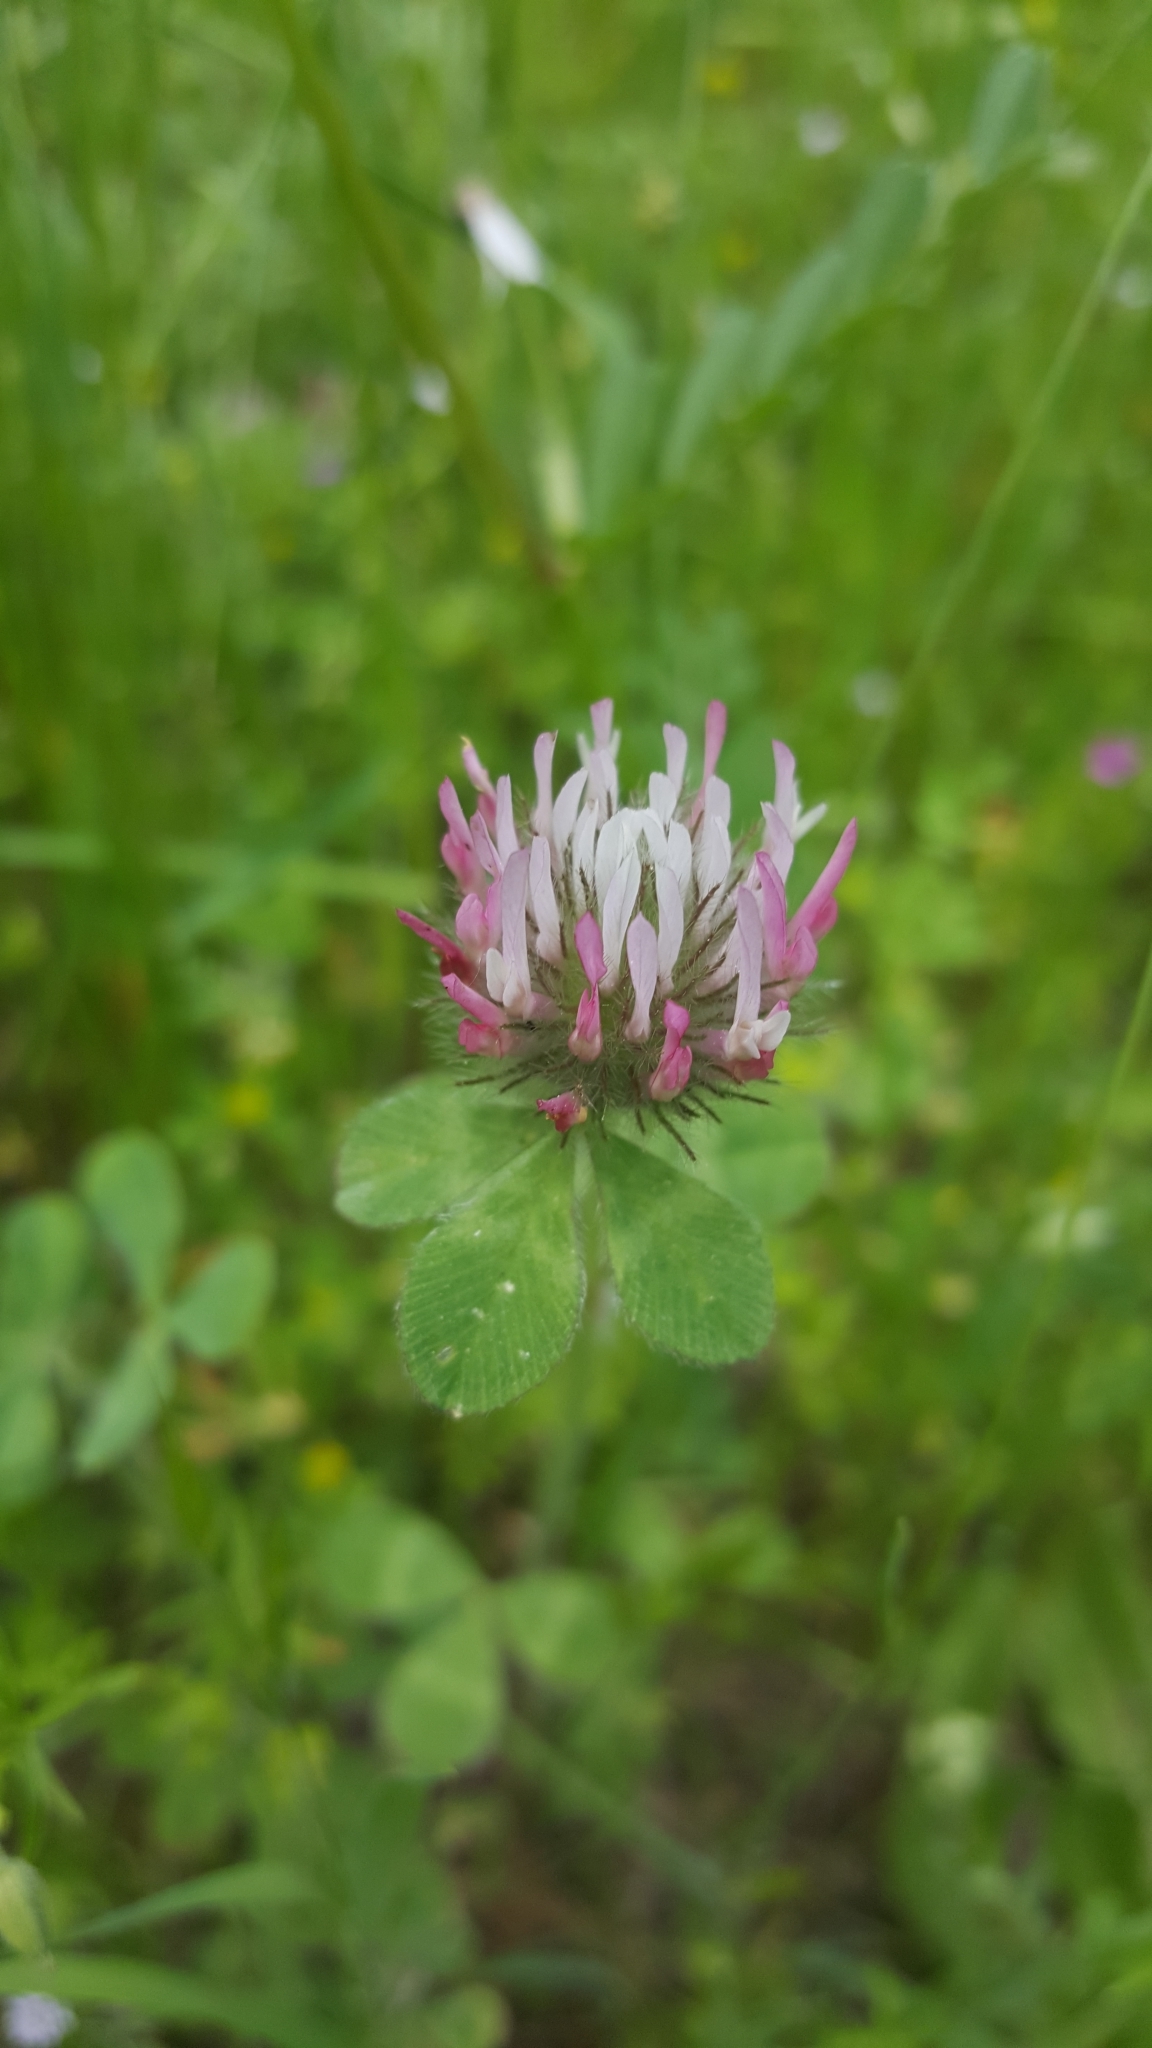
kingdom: Plantae
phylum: Tracheophyta
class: Magnoliopsida
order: Fabales
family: Fabaceae
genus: Trifolium
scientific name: Trifolium hirtum
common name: Rose clover
